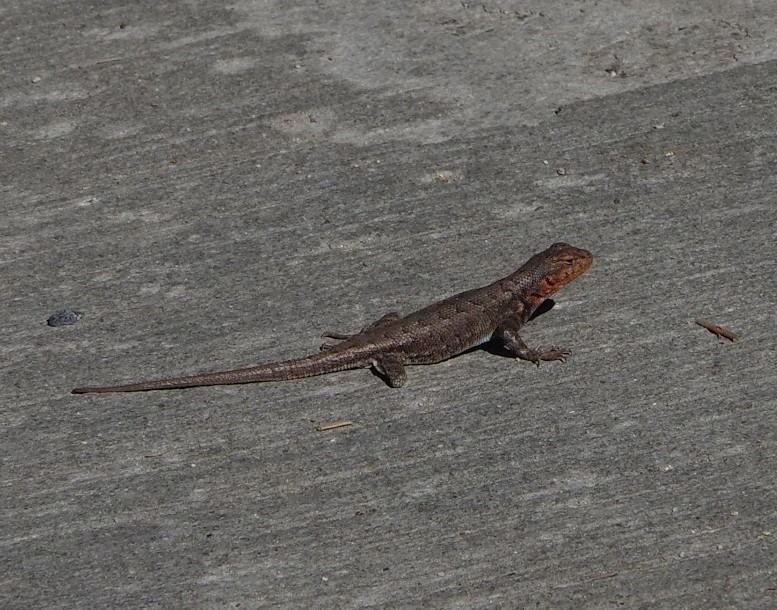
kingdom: Animalia
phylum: Chordata
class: Squamata
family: Phrynosomatidae
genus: Sceloporus
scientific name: Sceloporus graciosus
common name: Sagebrush lizard
